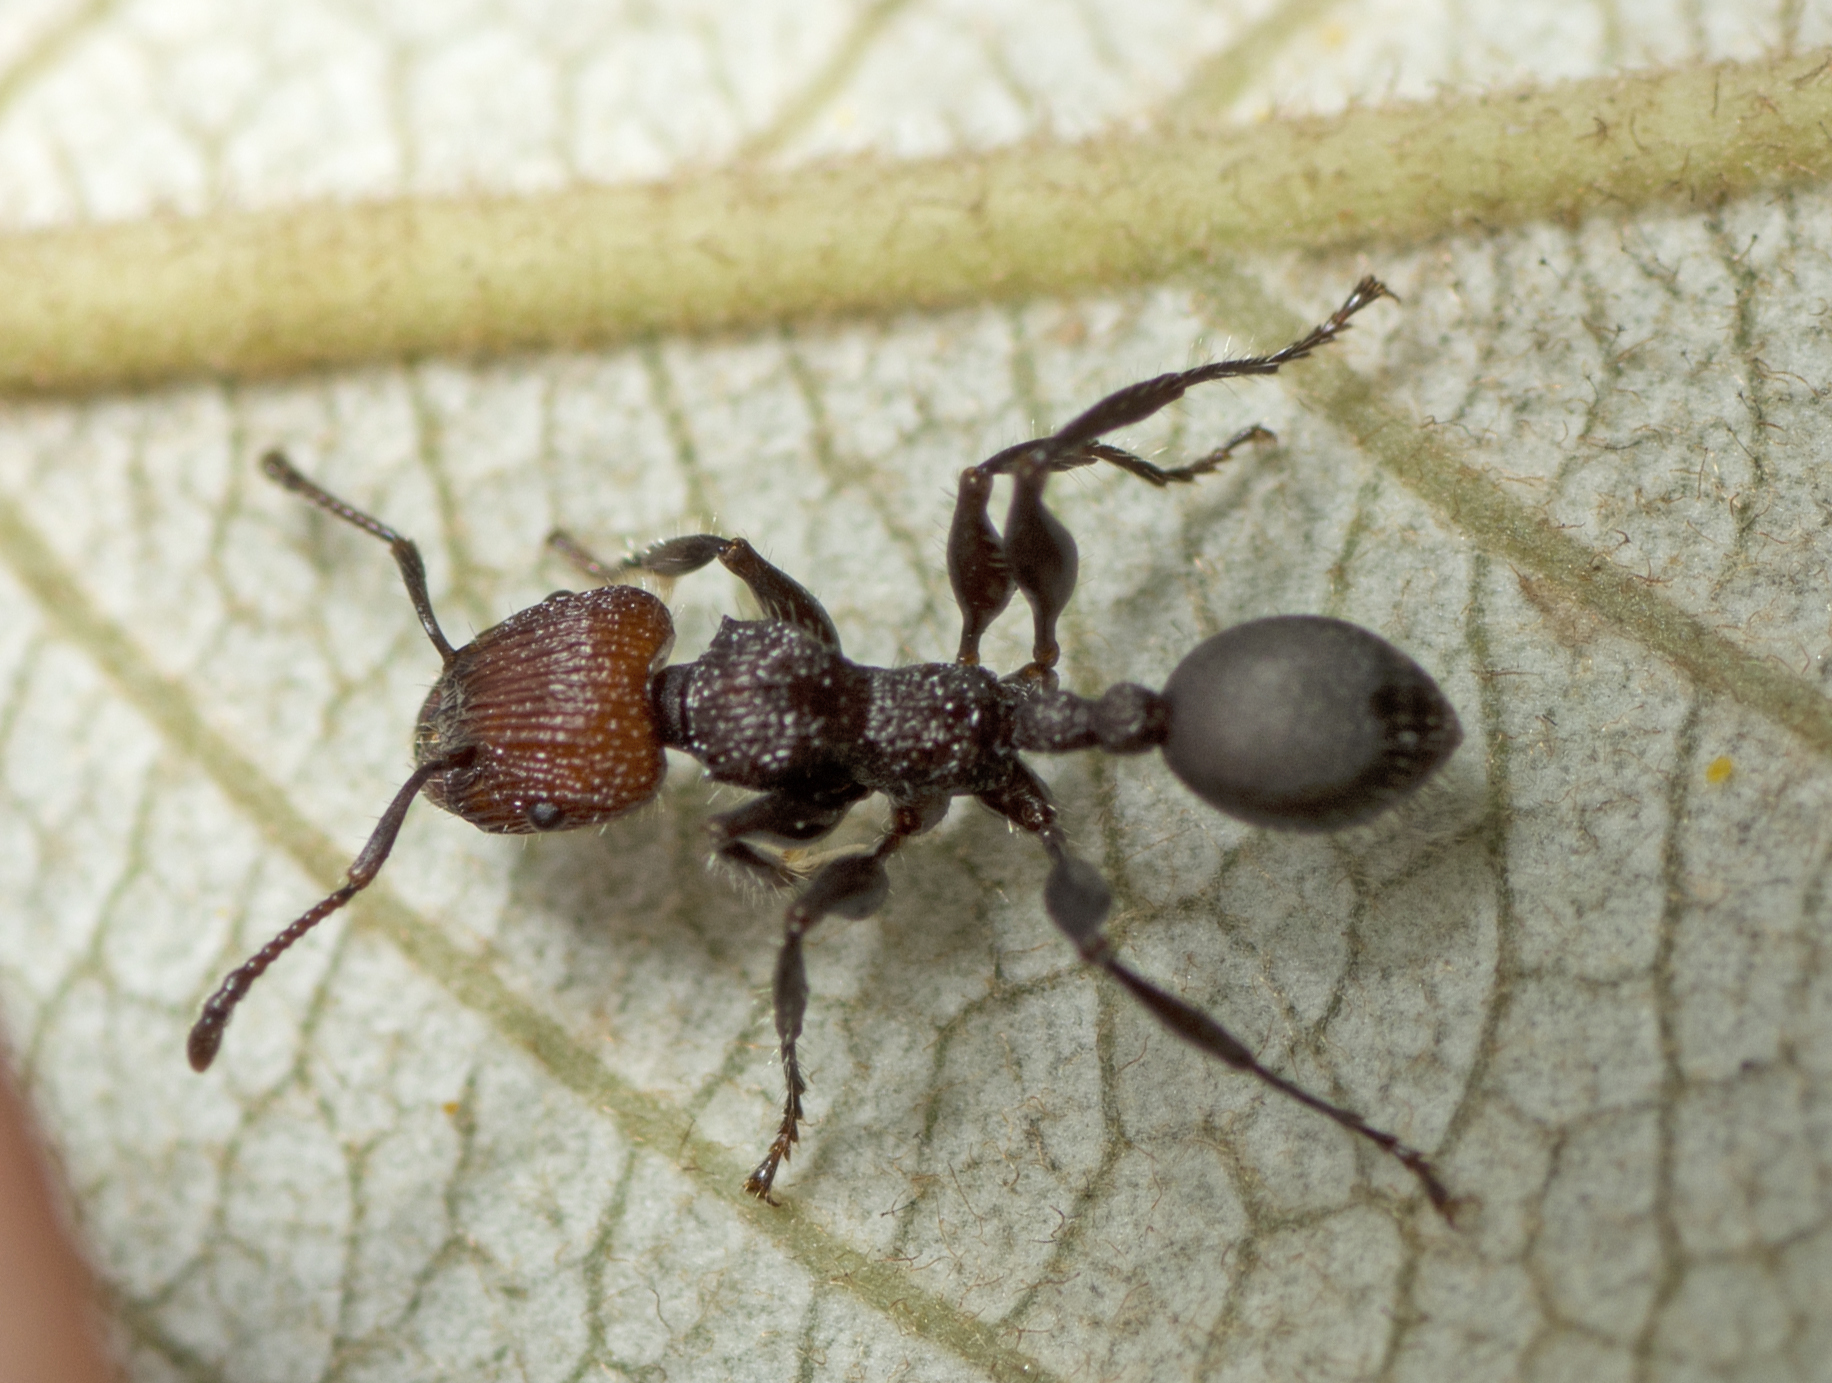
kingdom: Animalia
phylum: Arthropoda
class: Insecta
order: Hymenoptera
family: Formicidae
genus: Podomyrma
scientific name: Podomyrma micans
